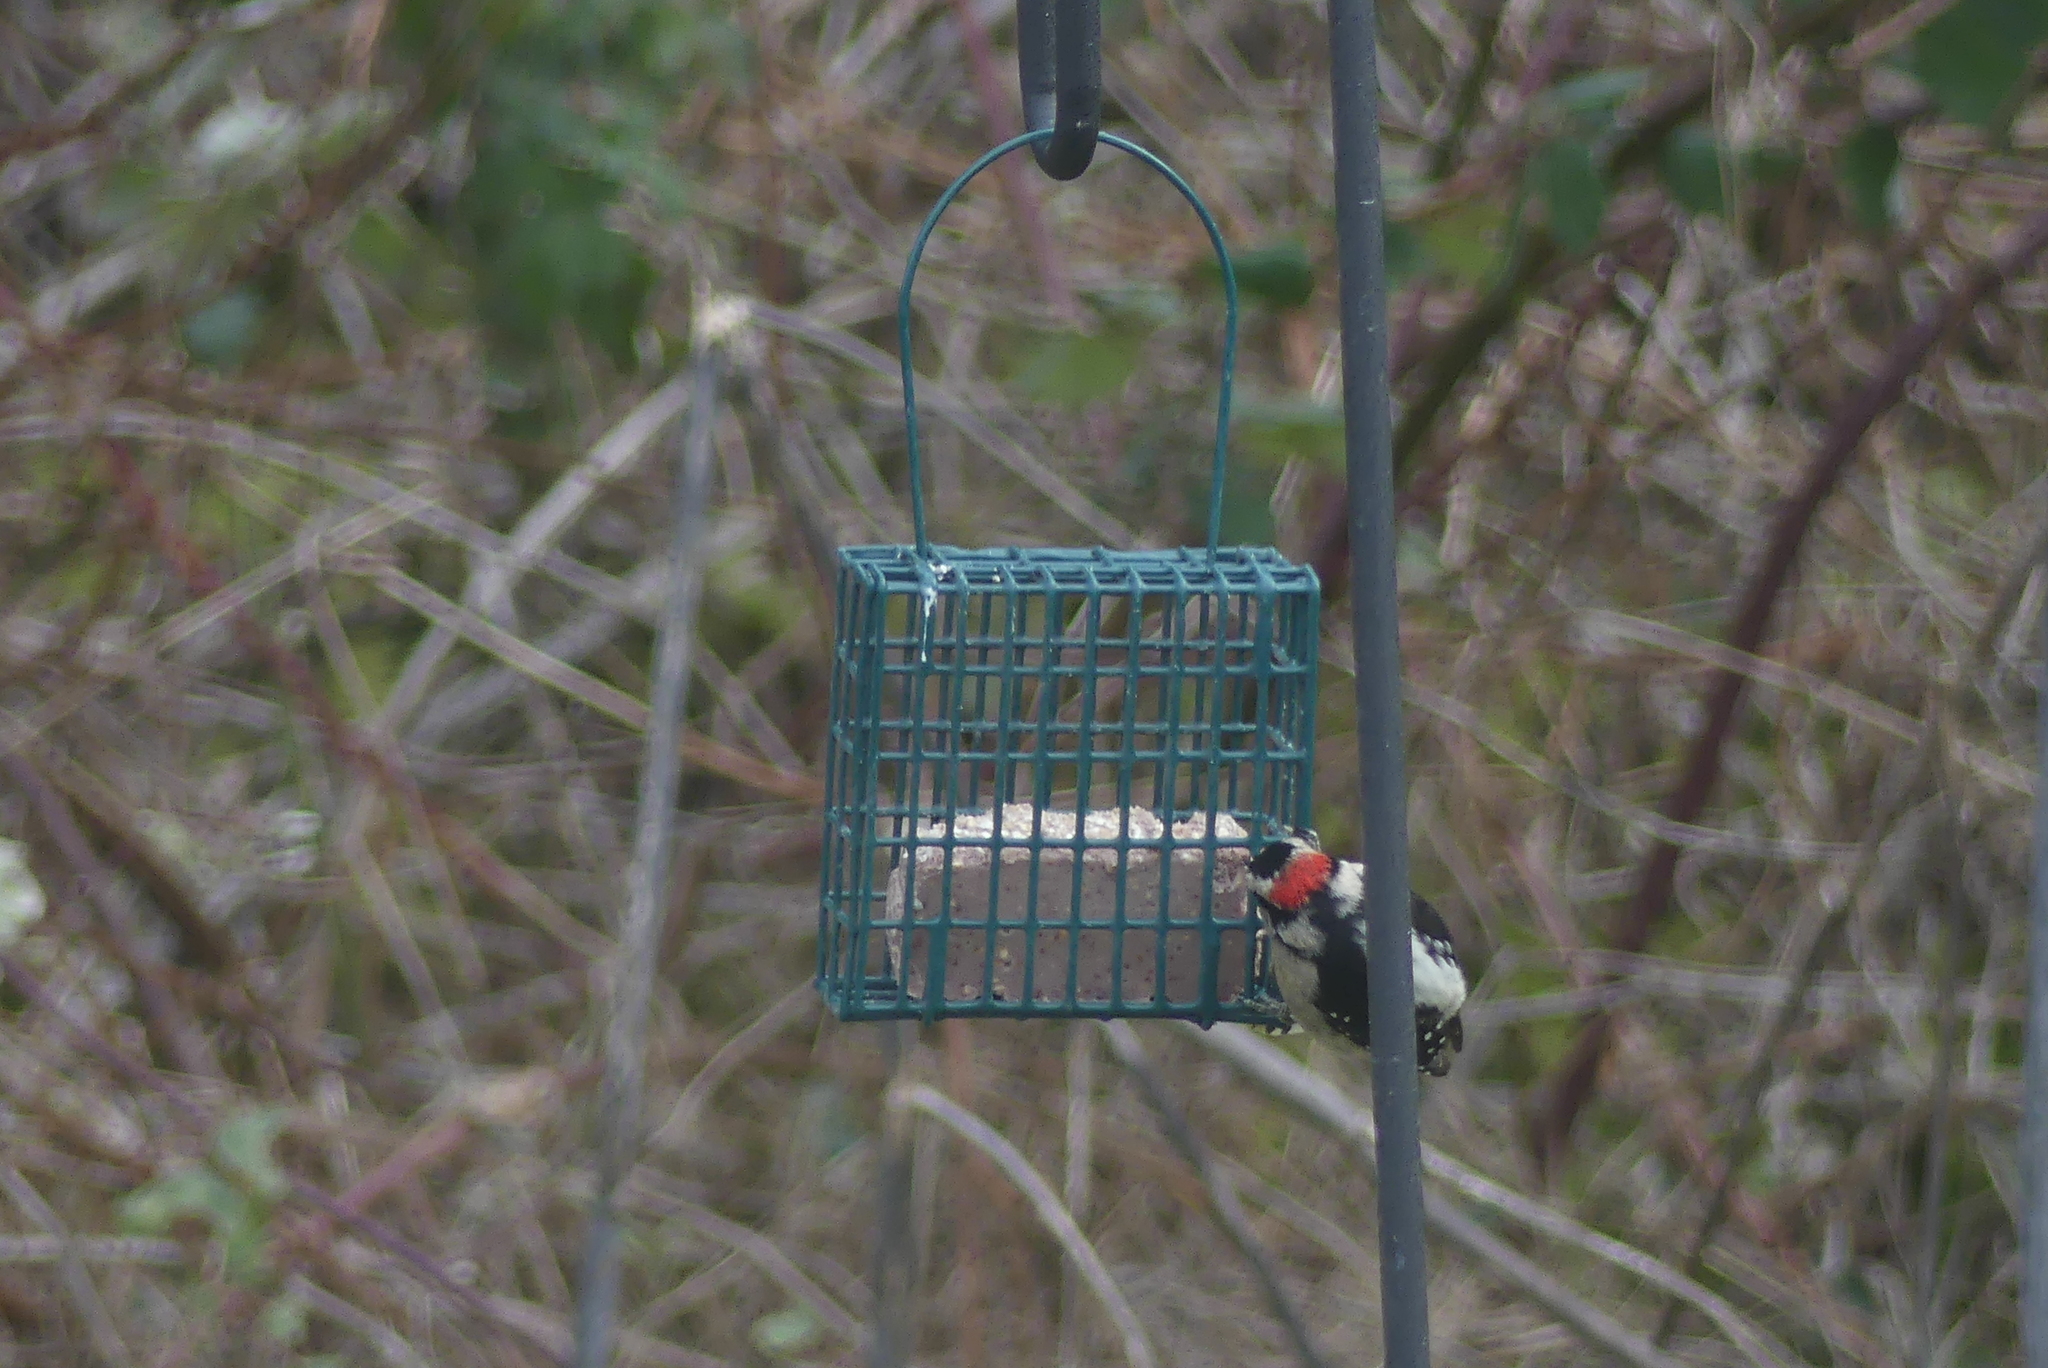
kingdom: Animalia
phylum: Chordata
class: Aves
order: Piciformes
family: Picidae
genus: Dryobates
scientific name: Dryobates pubescens
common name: Downy woodpecker
